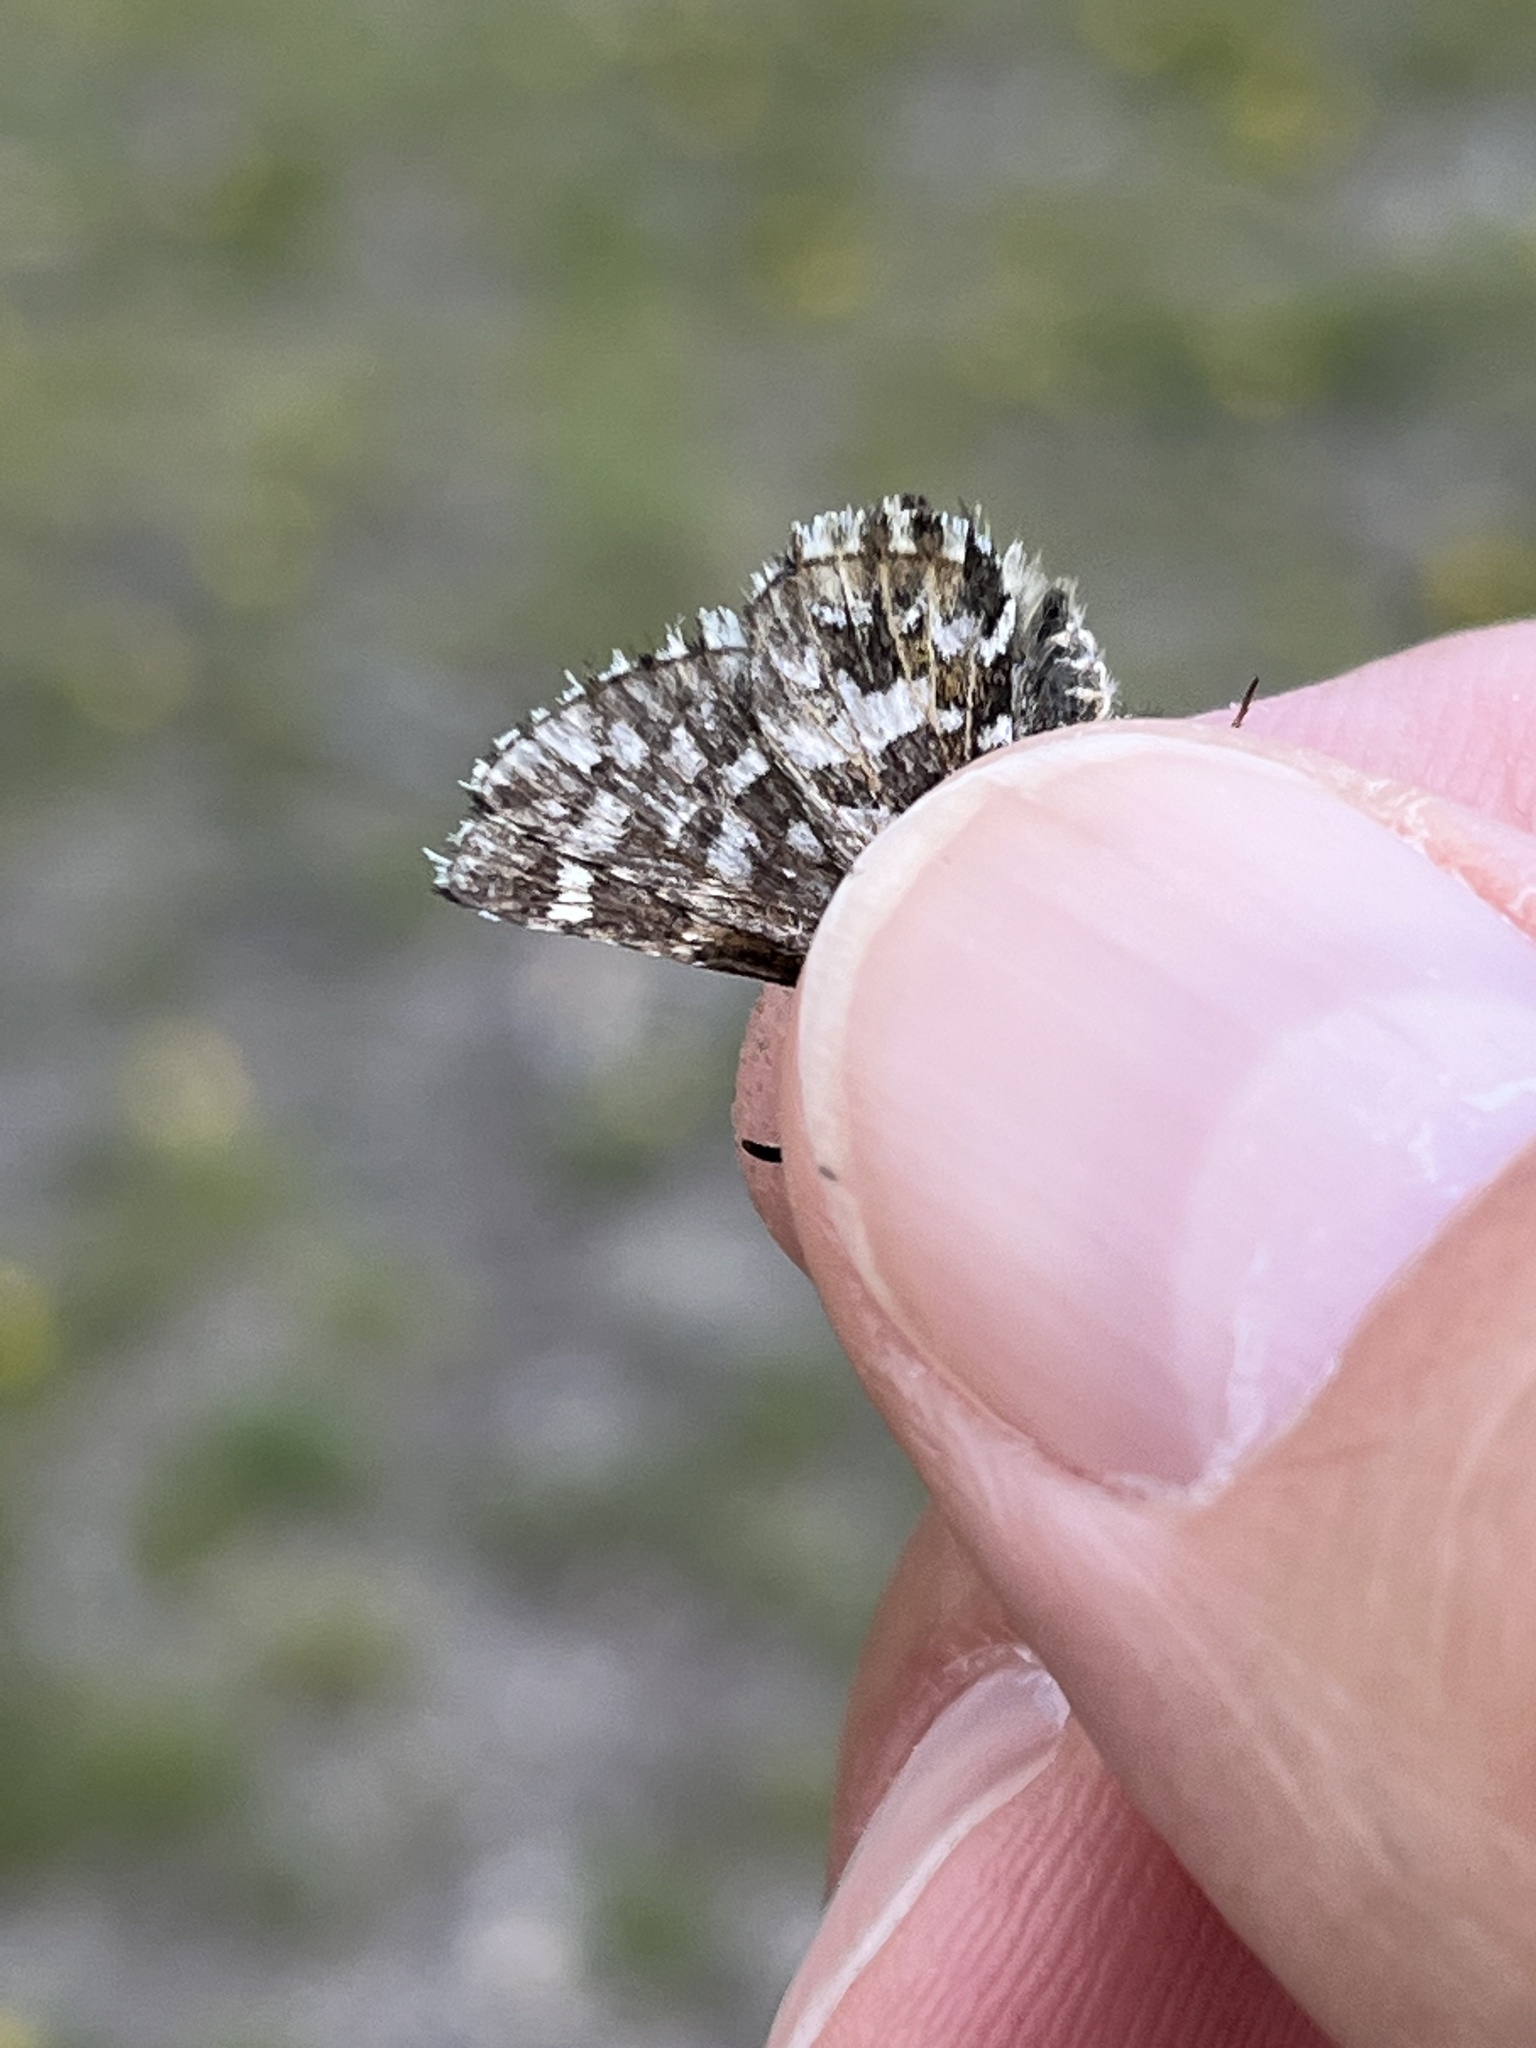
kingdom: Animalia
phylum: Arthropoda
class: Insecta
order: Lepidoptera
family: Hesperiidae
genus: Pyrgus
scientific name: Pyrgus centaureae
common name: Northern grizzled skipper
